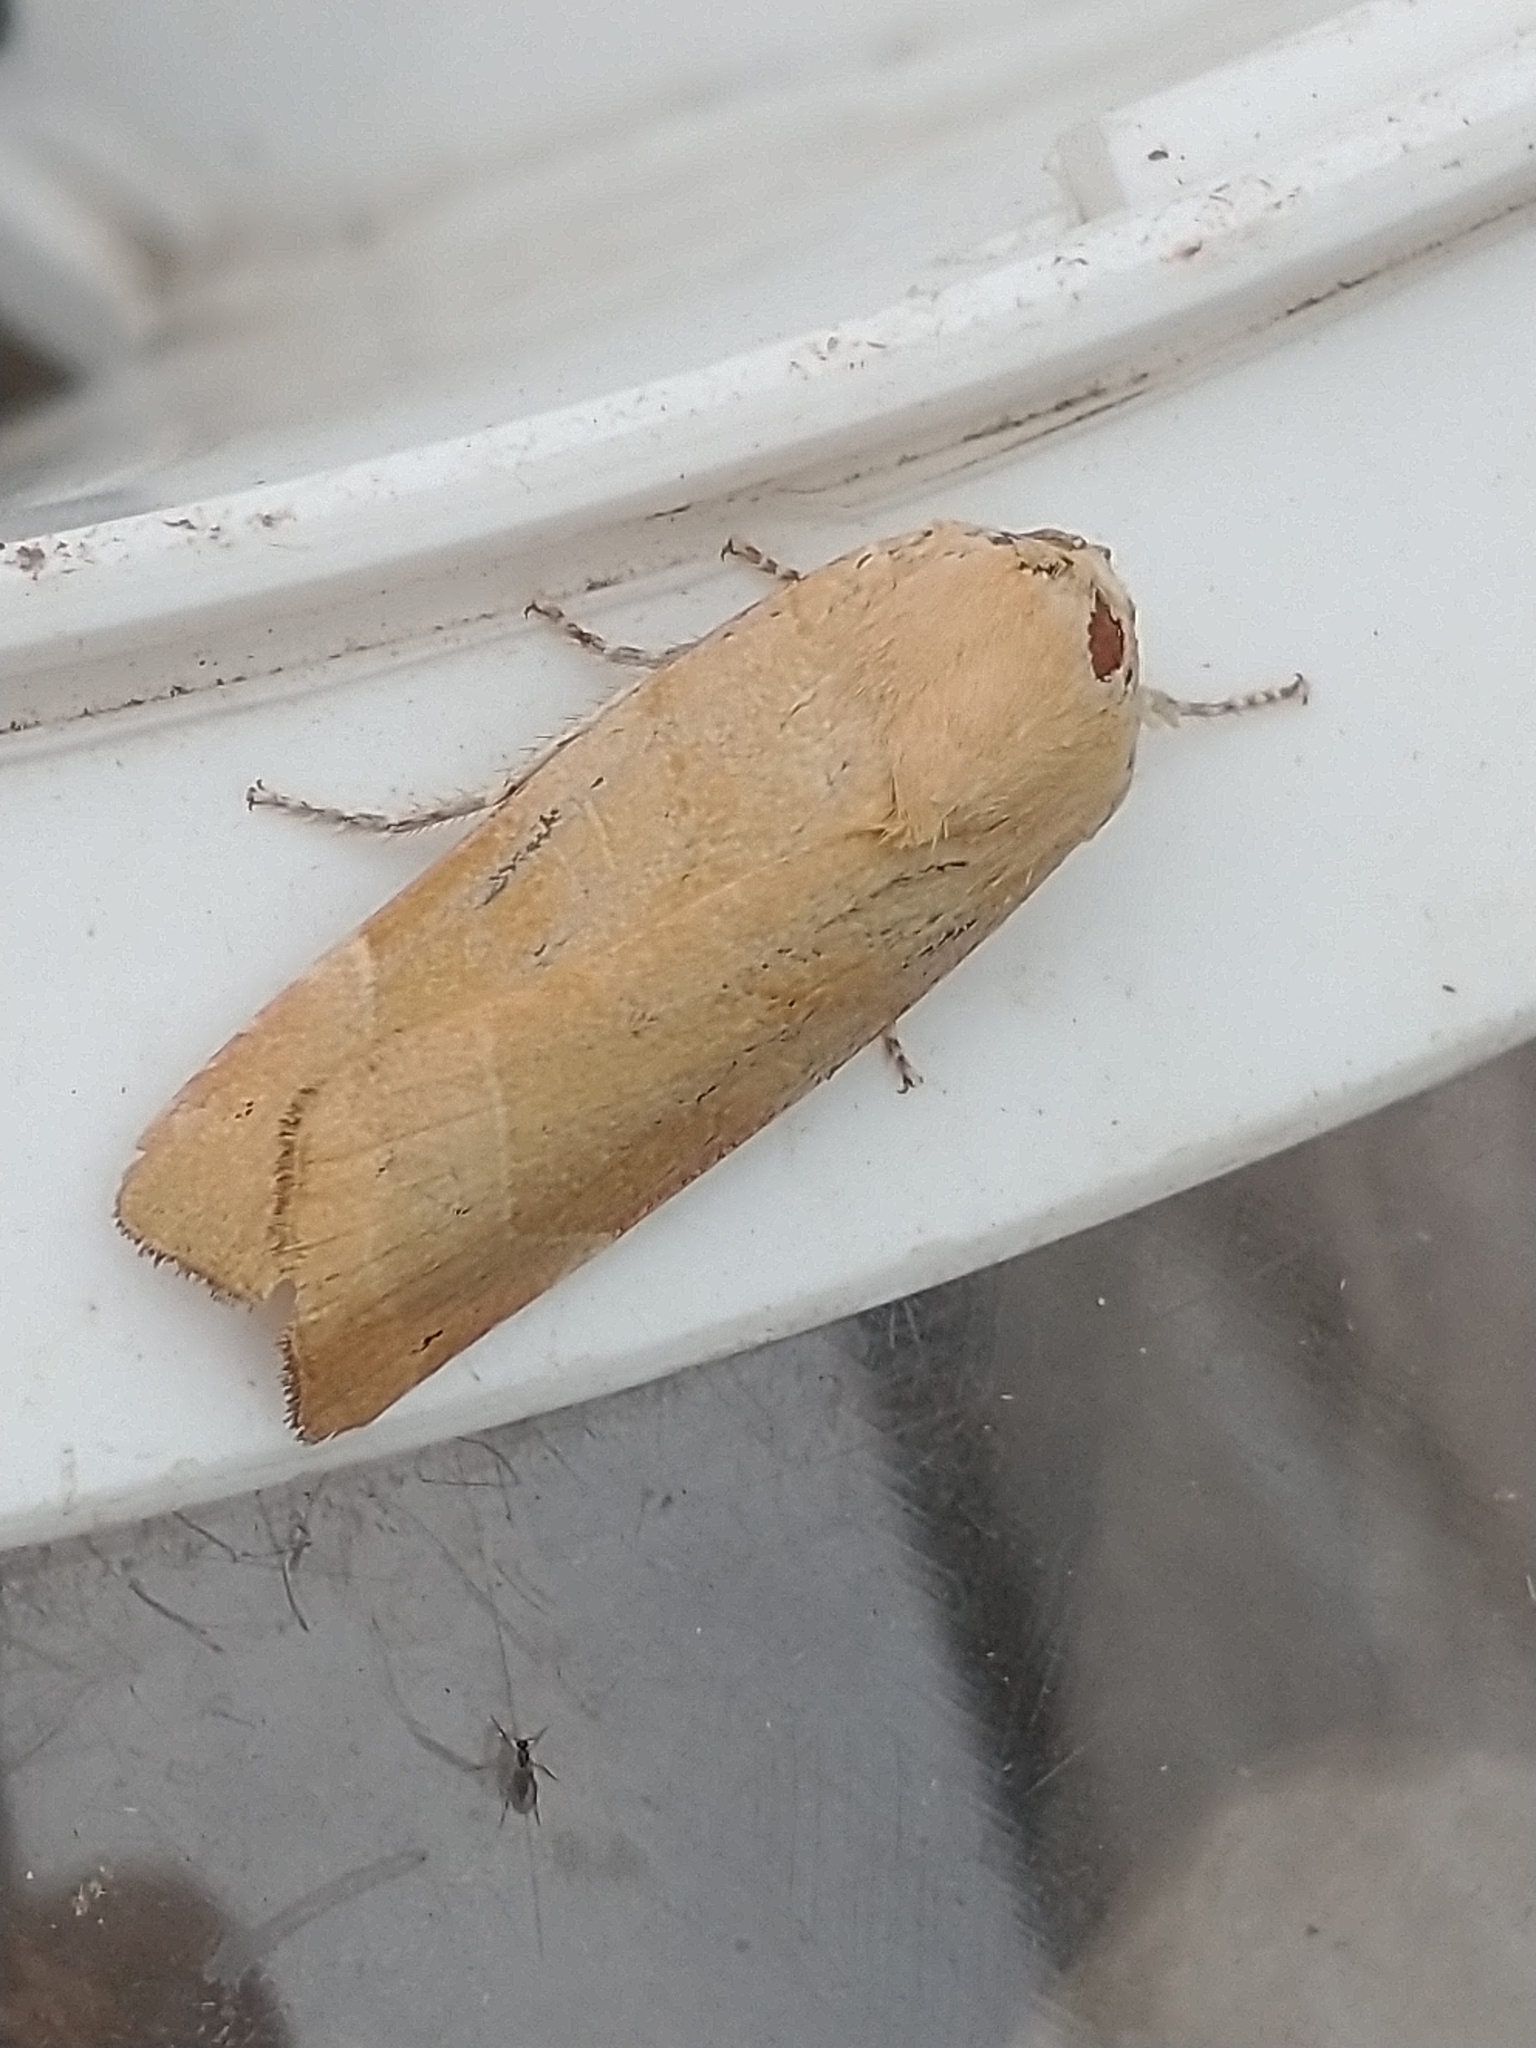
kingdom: Animalia
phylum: Arthropoda
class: Insecta
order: Lepidoptera
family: Noctuidae
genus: Noctua
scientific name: Noctua fimbriata
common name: Broad-bordered yellow underwing
